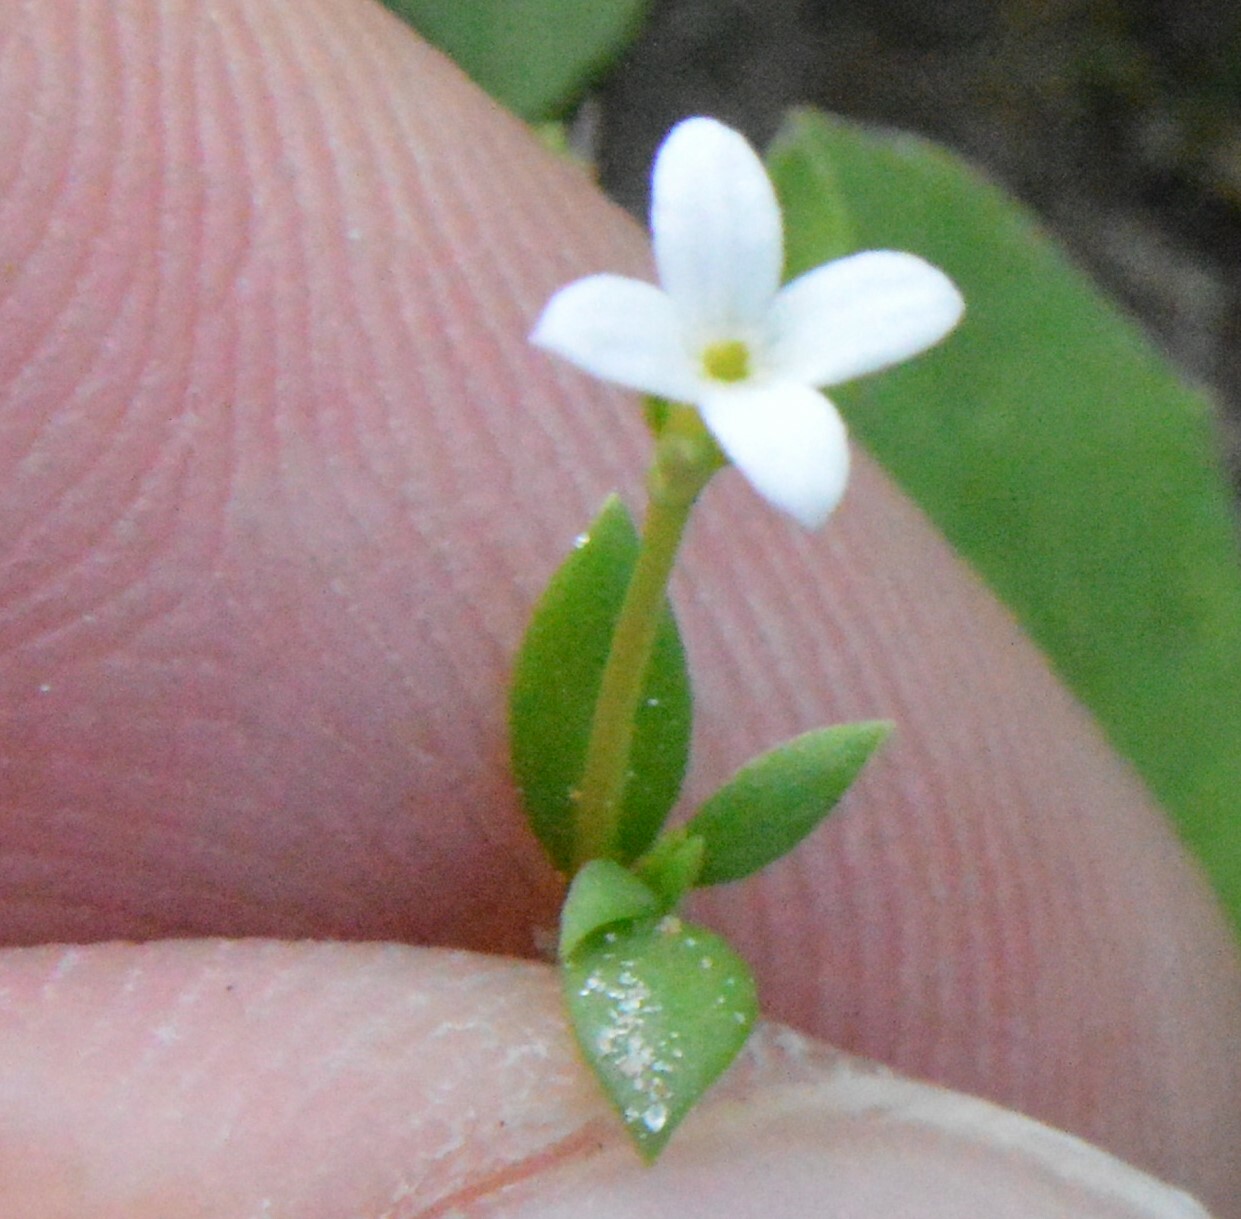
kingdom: Plantae
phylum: Tracheophyta
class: Magnoliopsida
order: Gentianales
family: Rubiaceae
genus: Houstonia
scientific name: Houstonia micrantha
